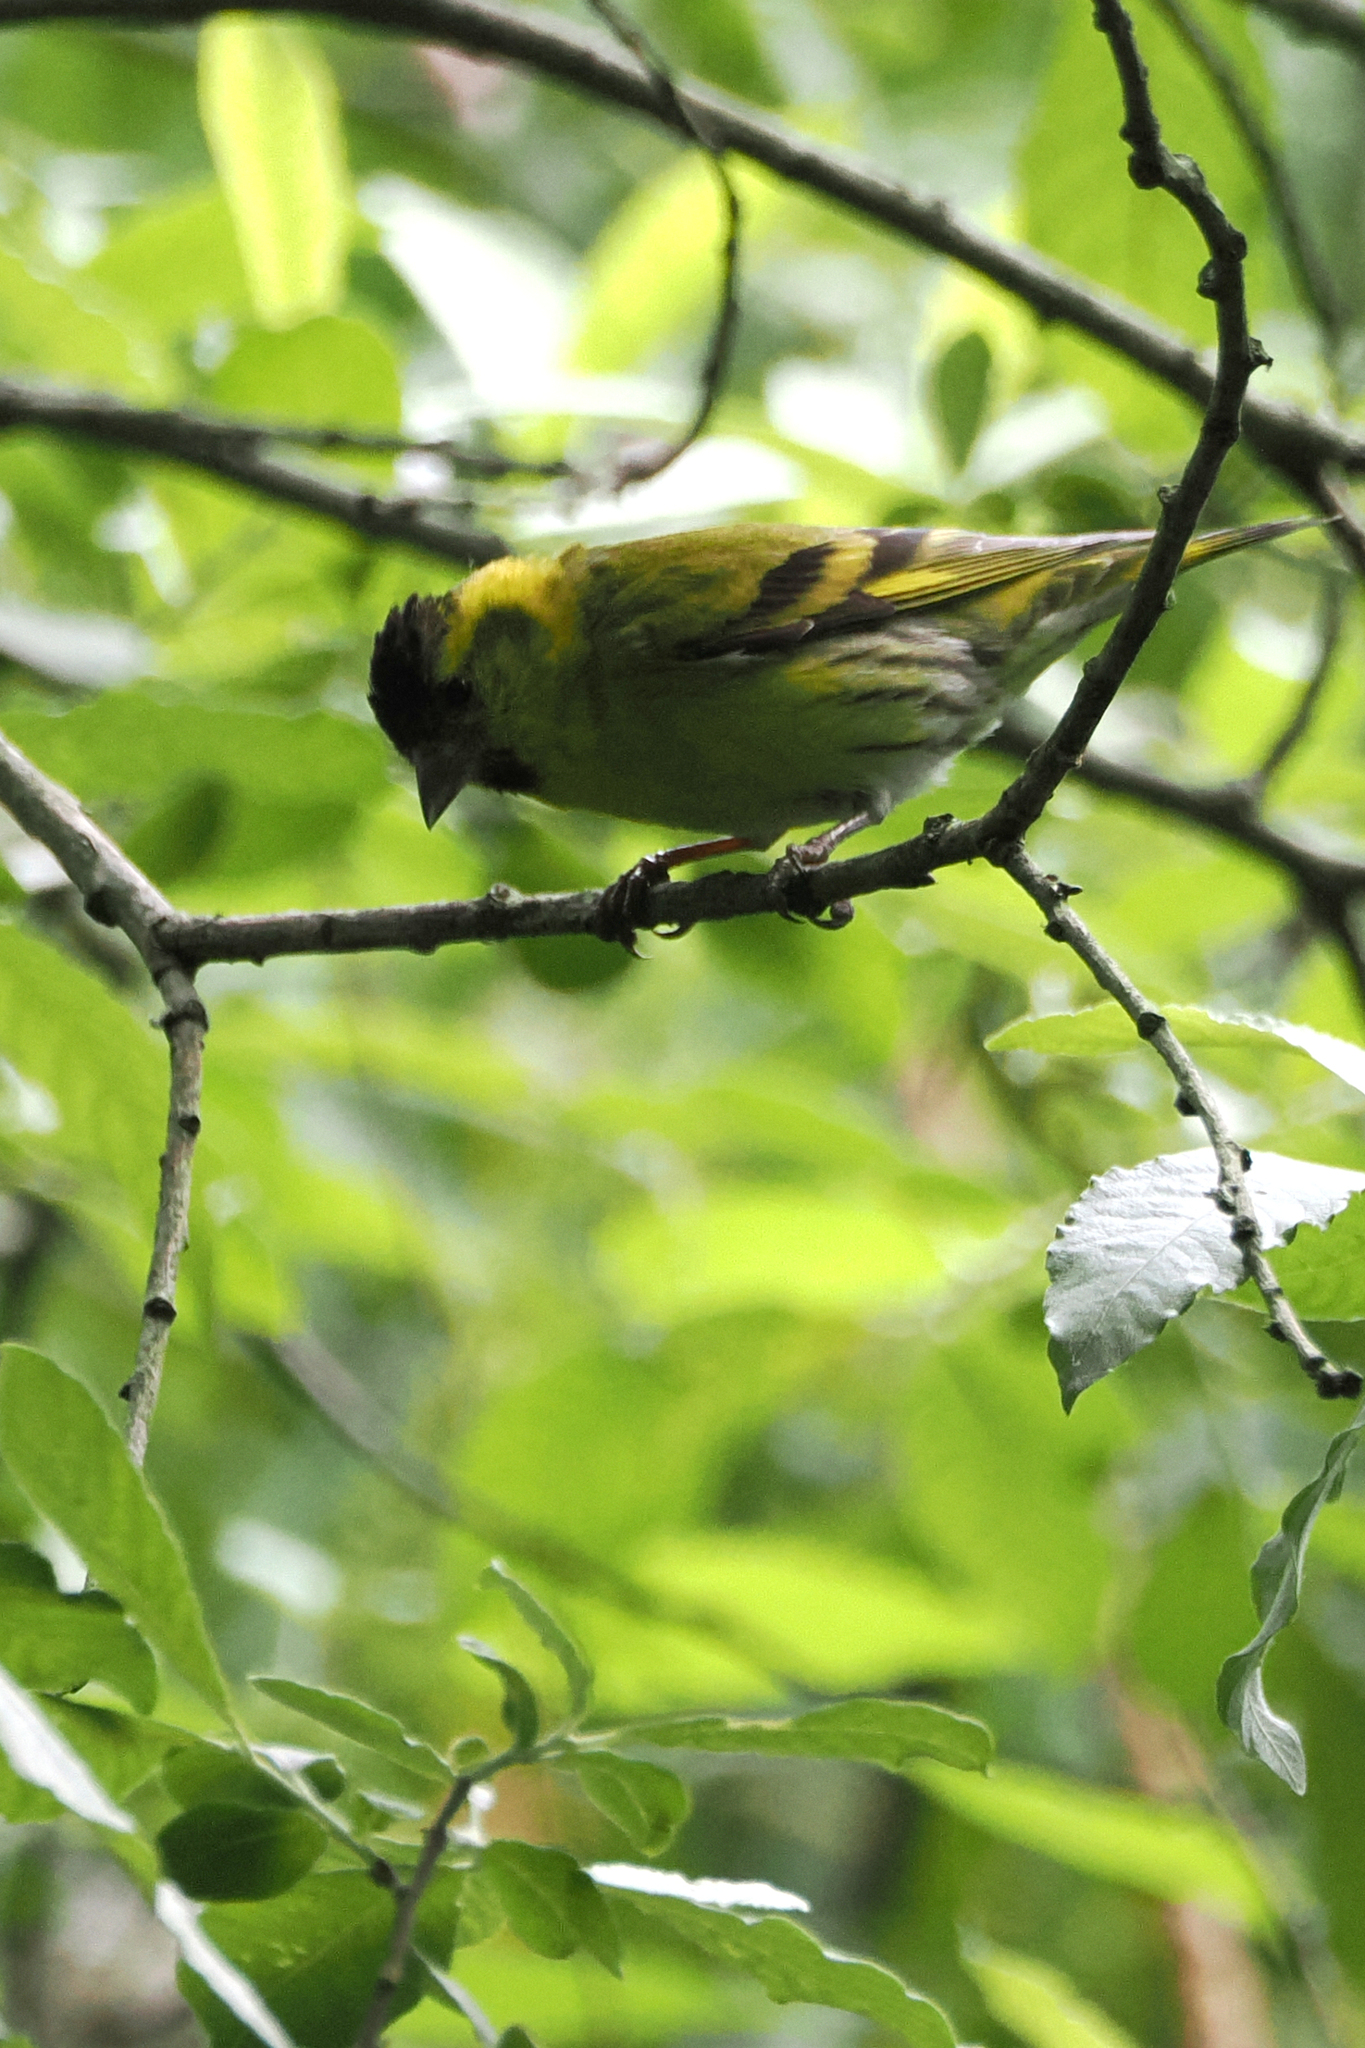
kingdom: Animalia
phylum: Chordata
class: Aves
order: Passeriformes
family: Fringillidae
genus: Spinus
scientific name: Spinus spinus
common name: Eurasian siskin
